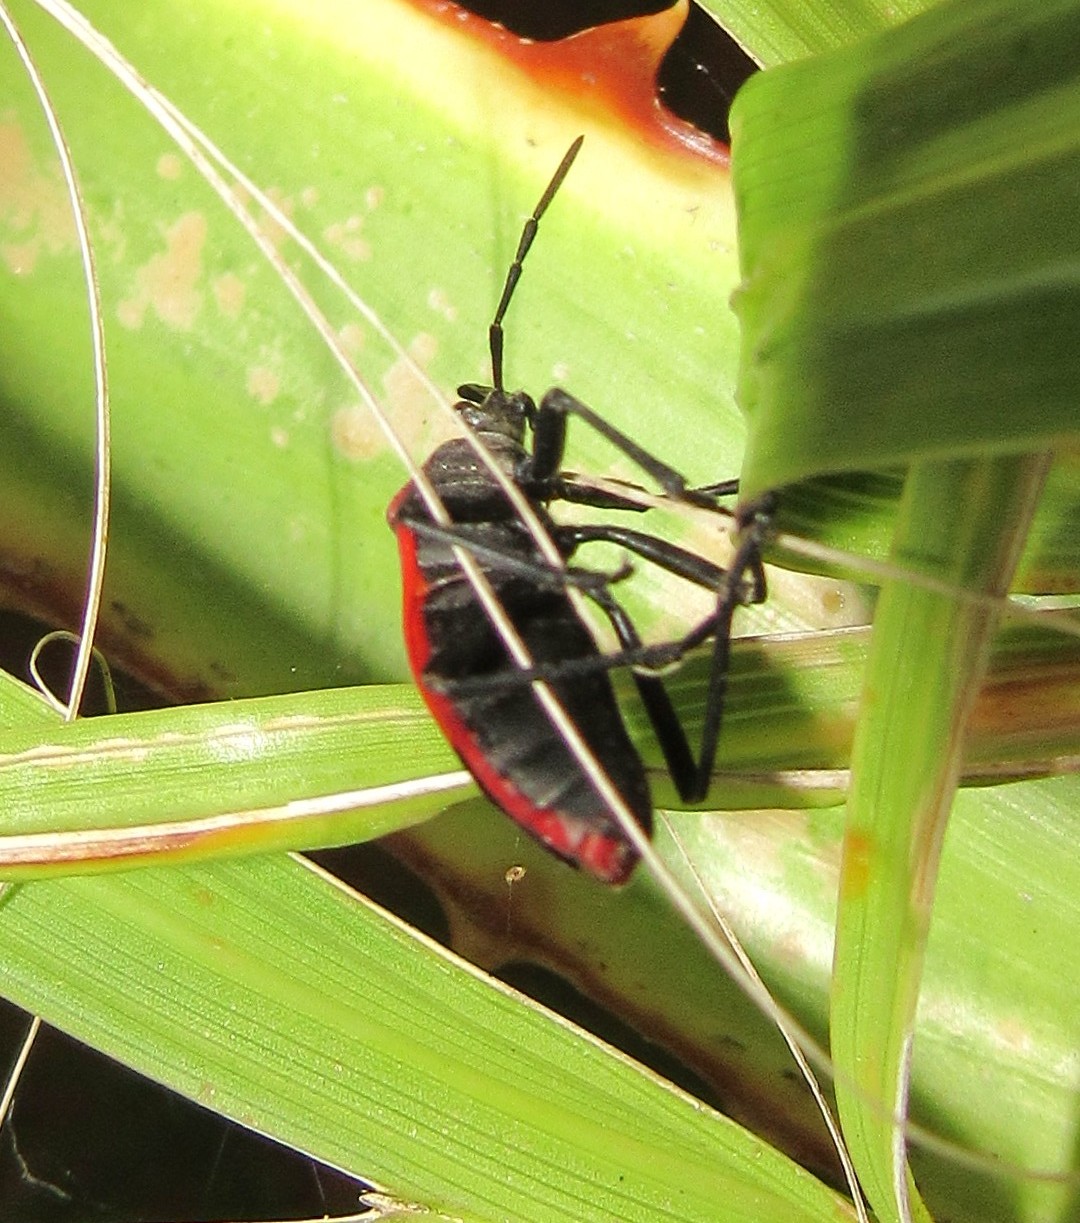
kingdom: Animalia
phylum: Arthropoda
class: Insecta
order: Hemiptera
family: Largidae
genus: Largus
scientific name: Largus rufipennis
